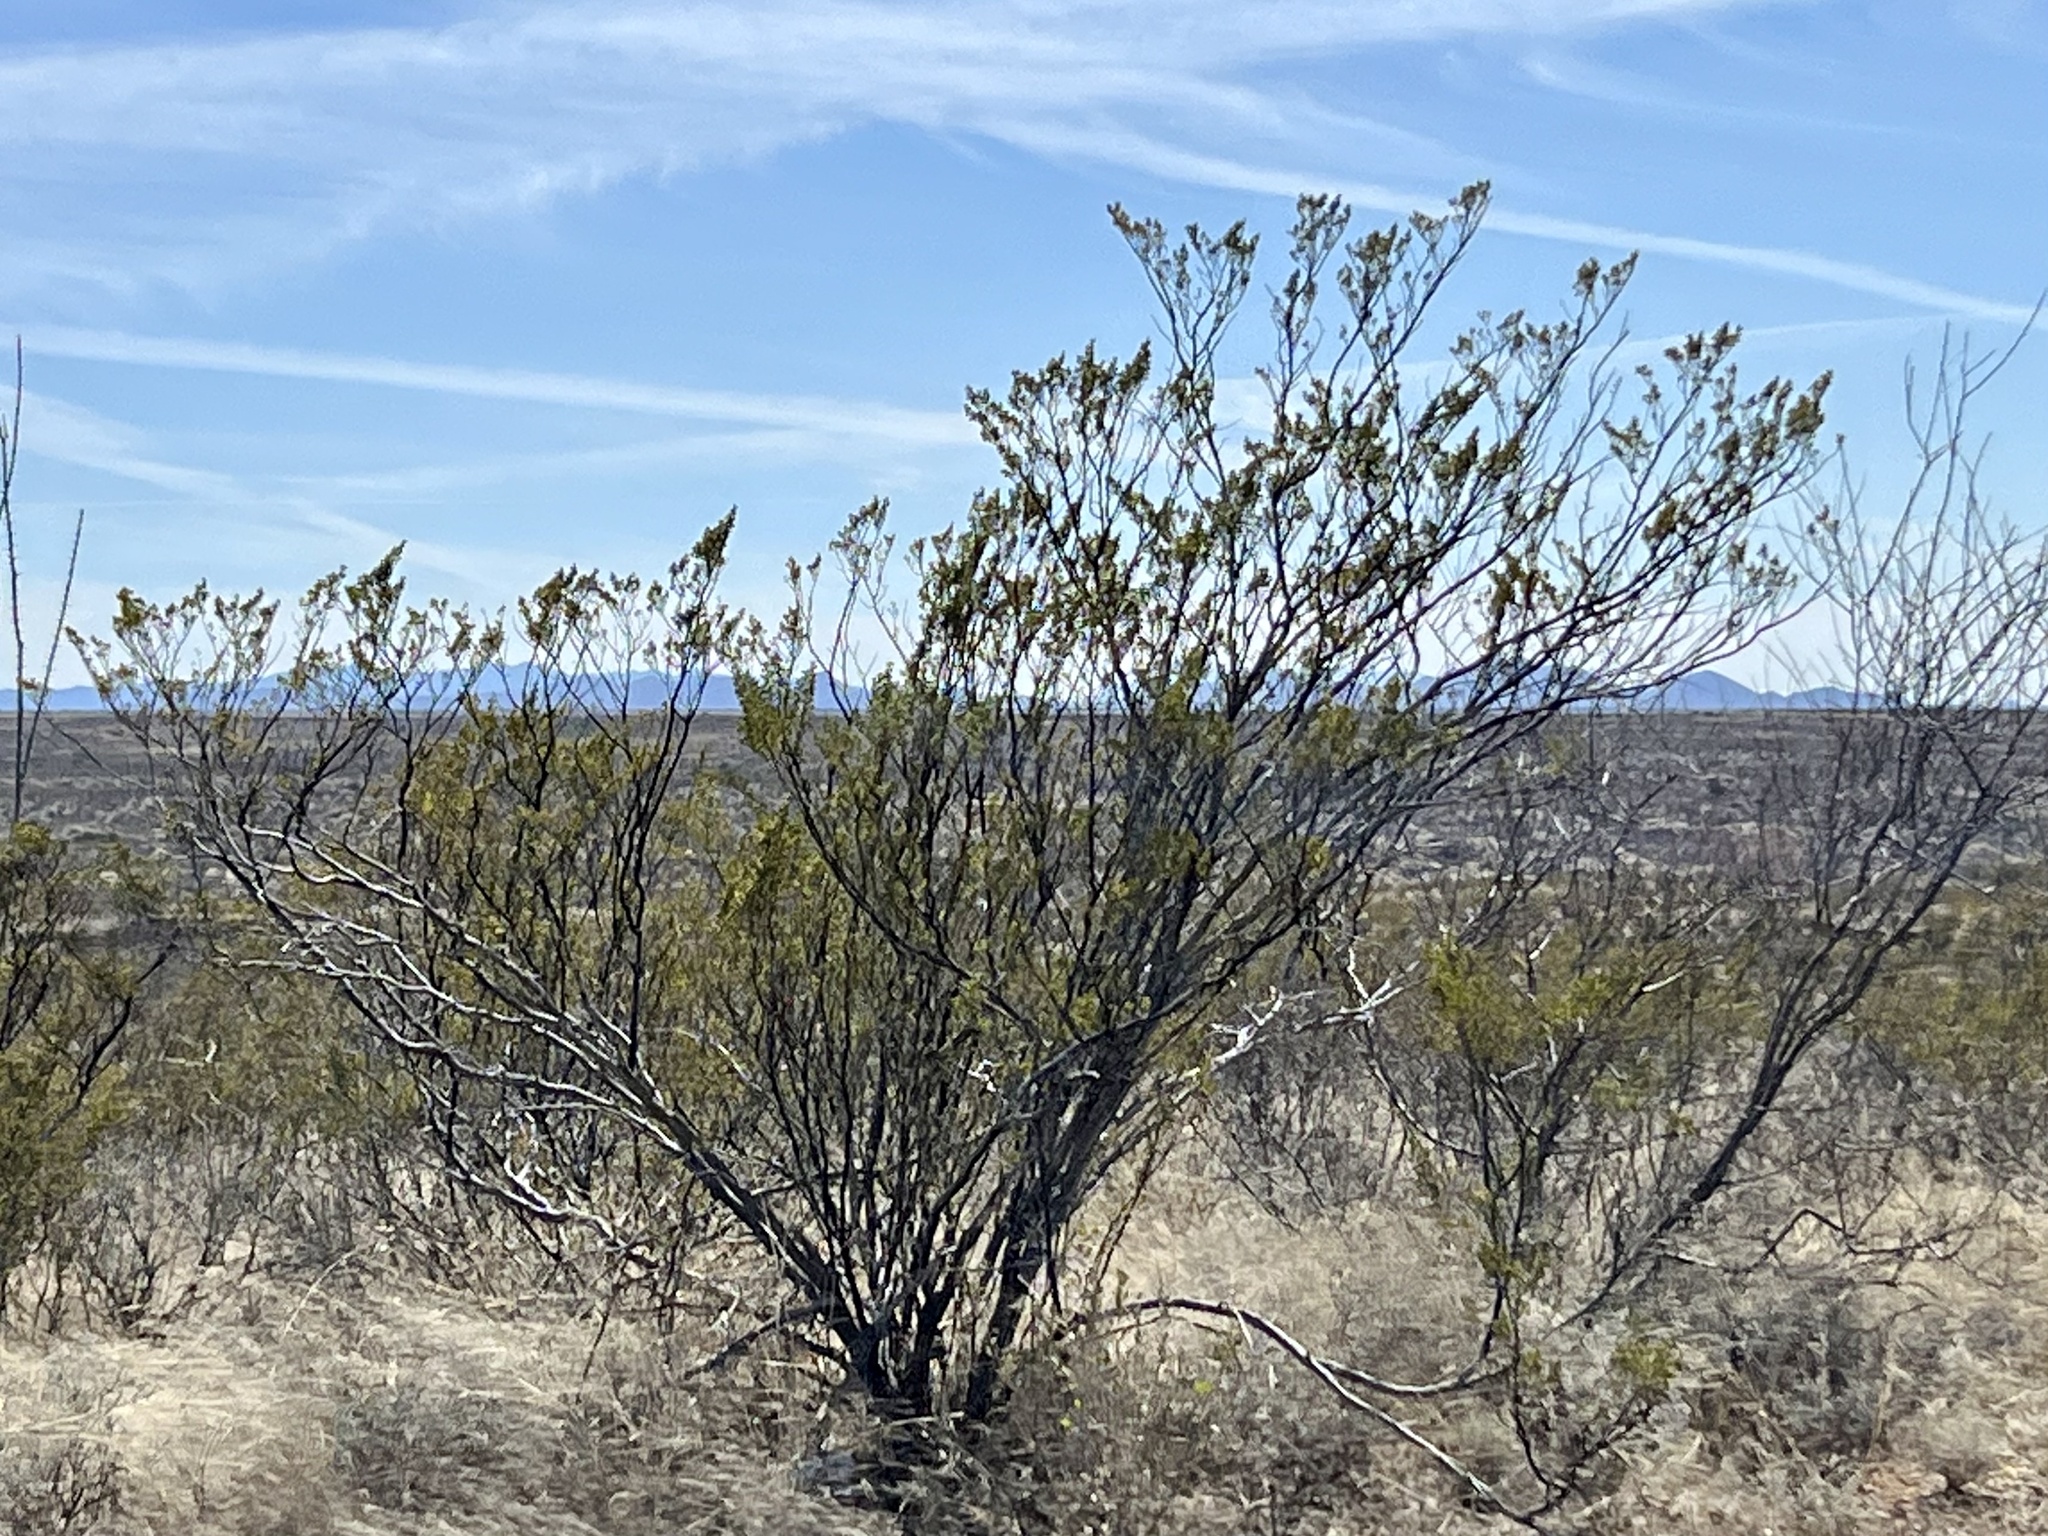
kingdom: Plantae
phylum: Tracheophyta
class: Magnoliopsida
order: Zygophyllales
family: Zygophyllaceae
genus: Larrea
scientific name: Larrea tridentata
